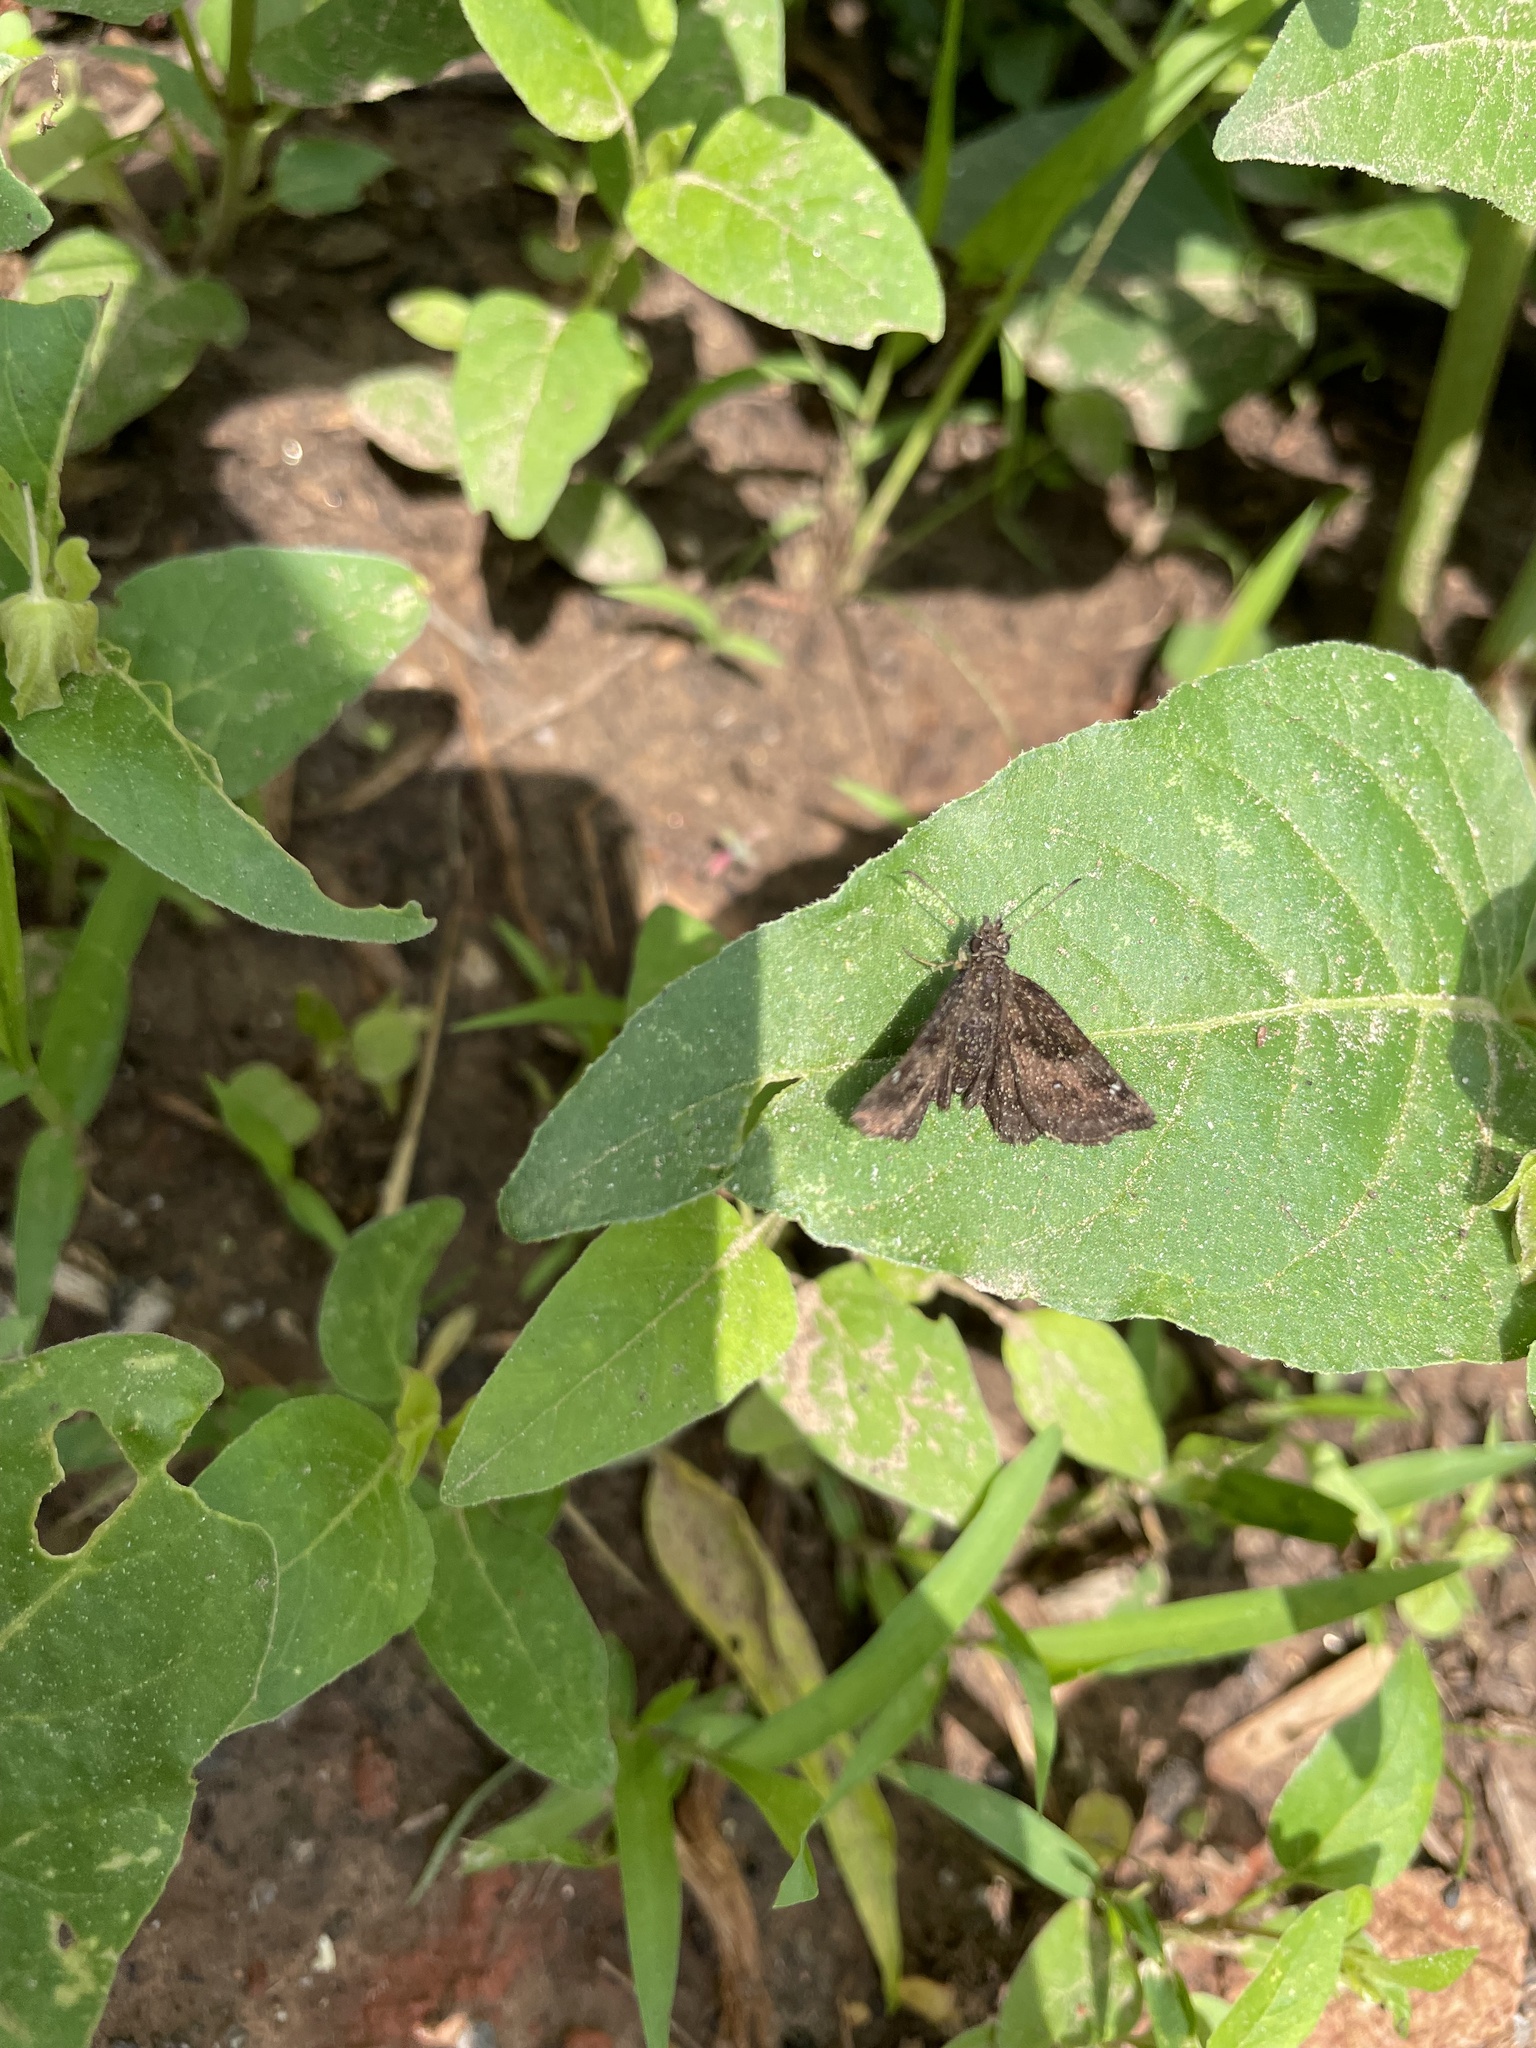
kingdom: Animalia
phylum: Arthropoda
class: Insecta
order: Lepidoptera
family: Hesperiidae
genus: Staphylus
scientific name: Staphylus mazans
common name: Mazans scallopwing
